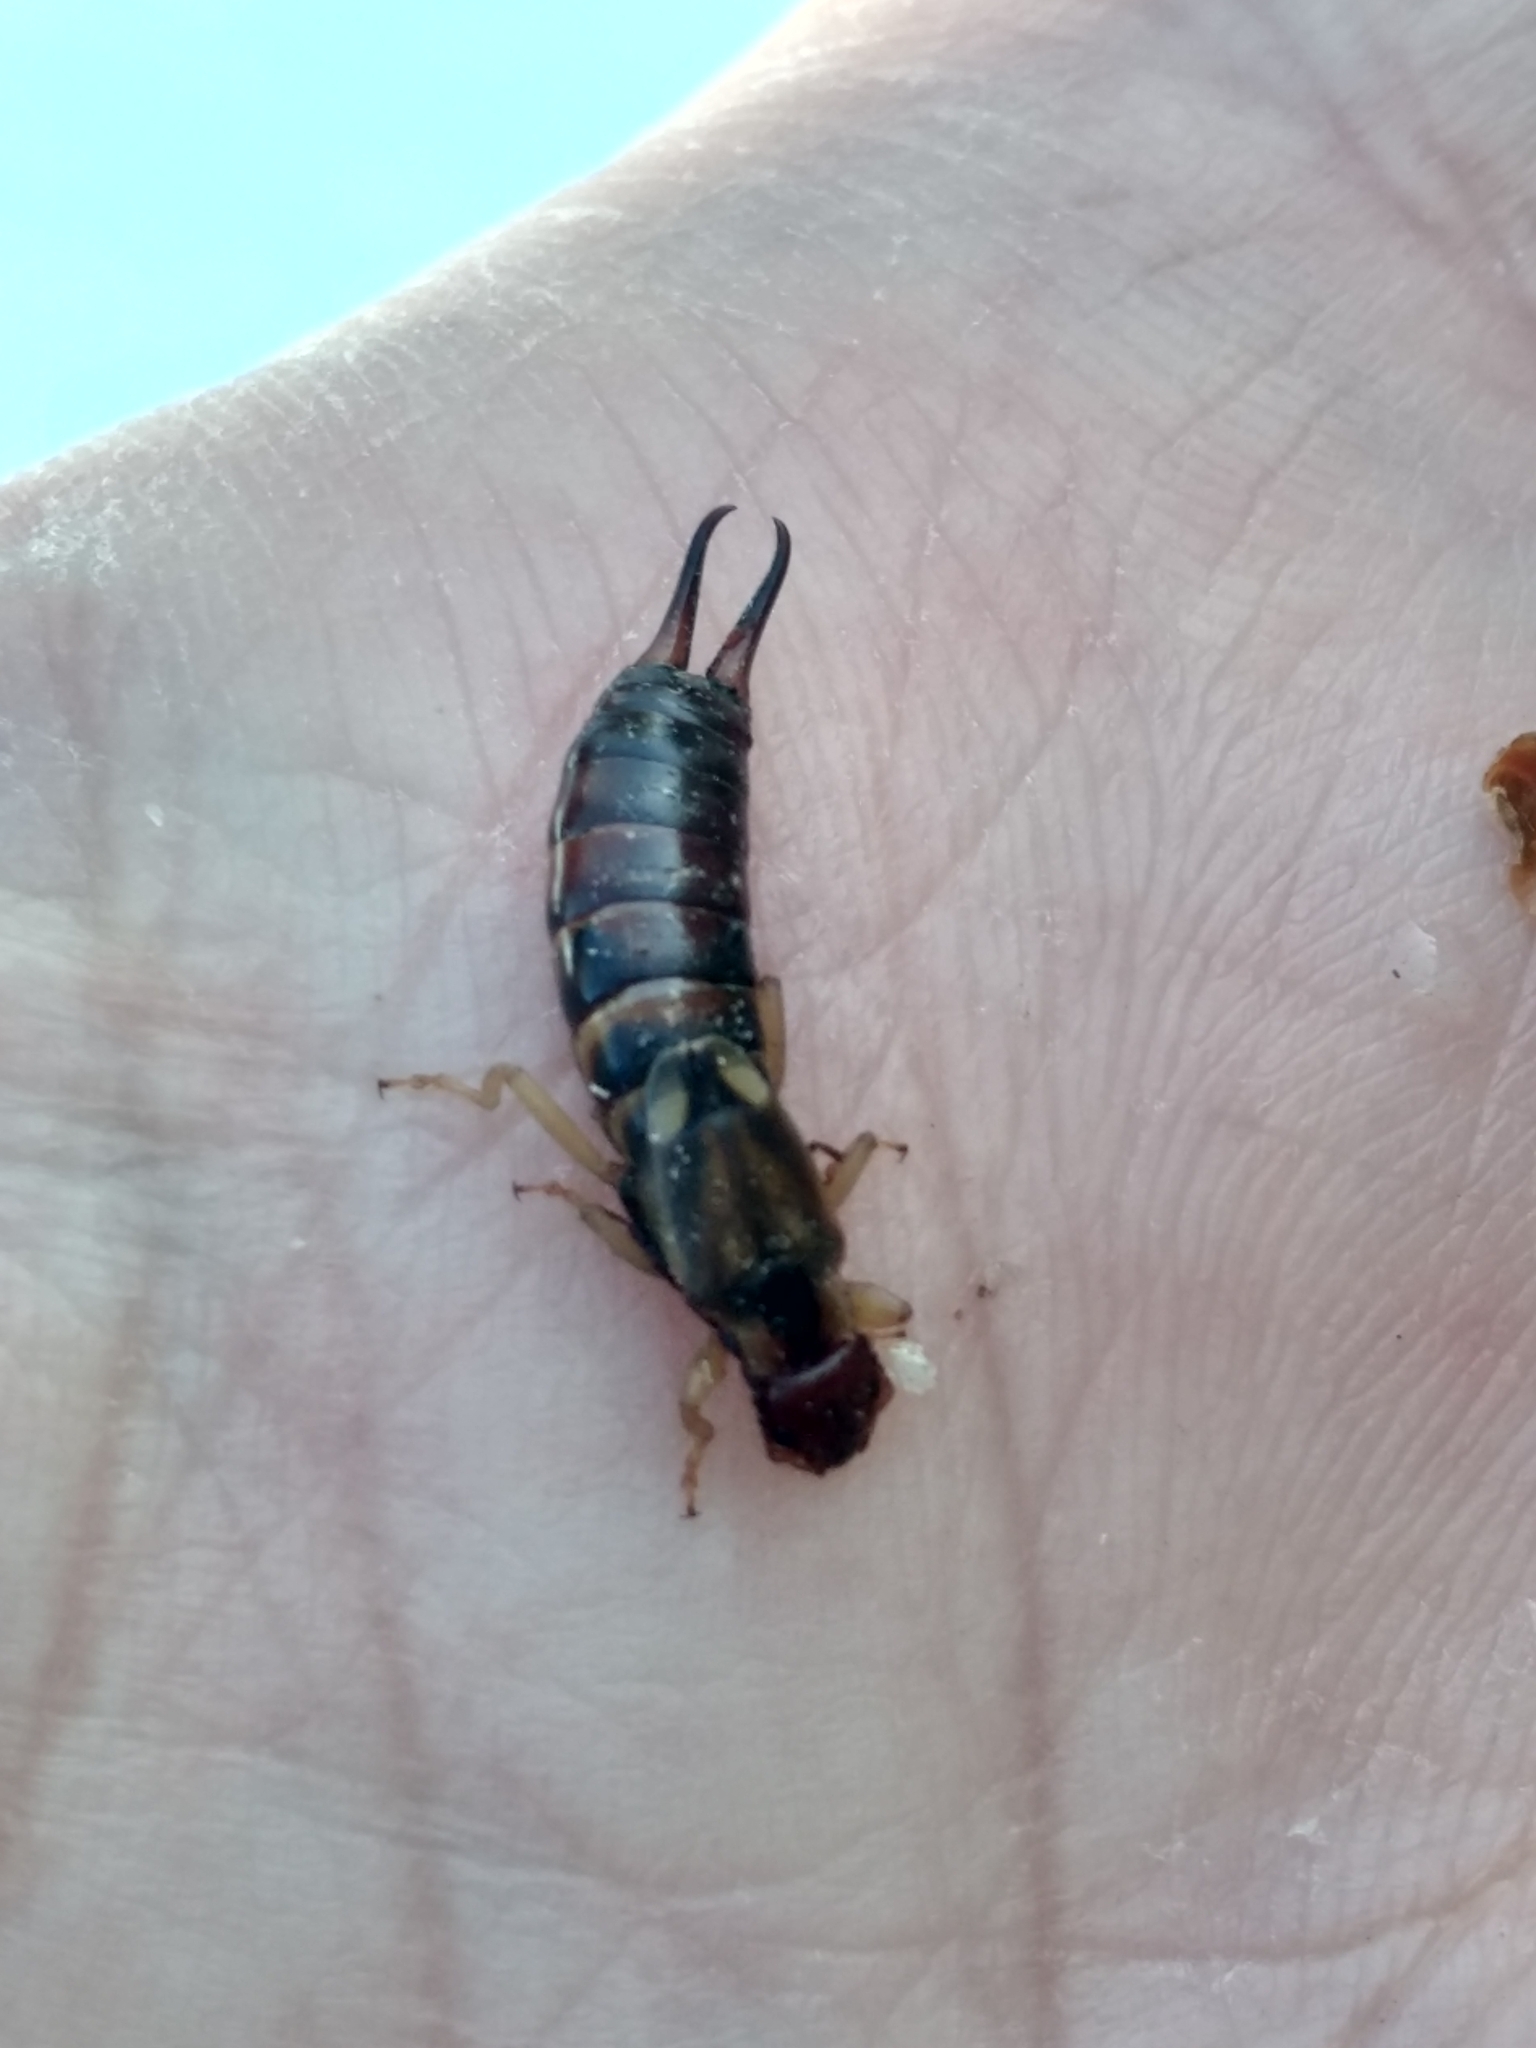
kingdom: Animalia
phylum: Arthropoda
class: Insecta
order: Dermaptera
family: Forficulidae
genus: Forficula
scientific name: Forficula
